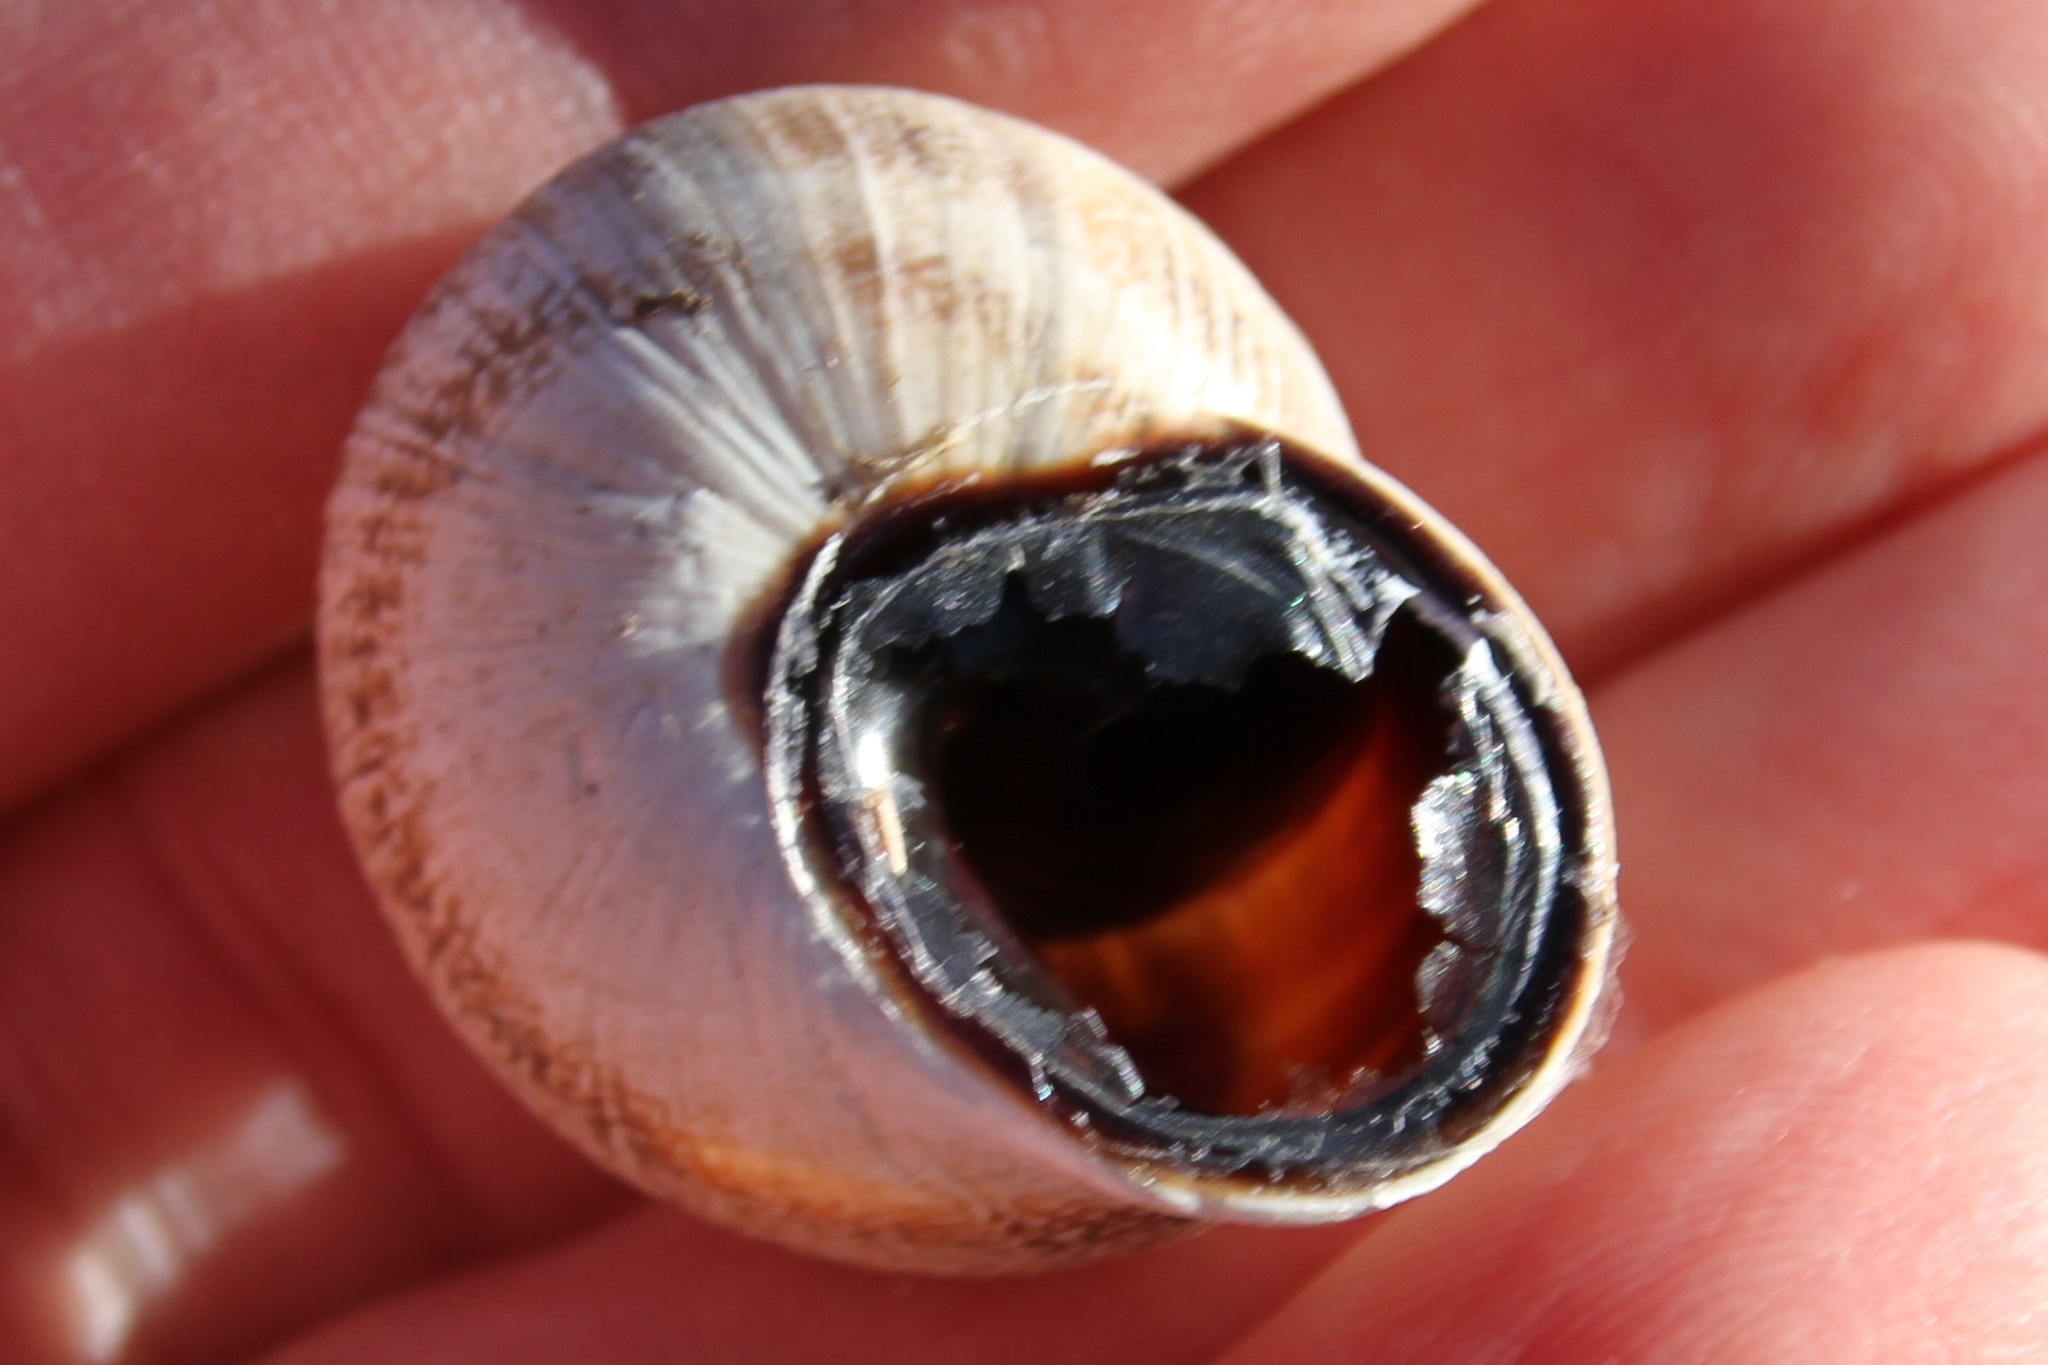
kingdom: Animalia
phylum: Mollusca
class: Gastropoda
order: Stylommatophora
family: Helicidae
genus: Otala
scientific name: Otala lactea
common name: Milk snail
